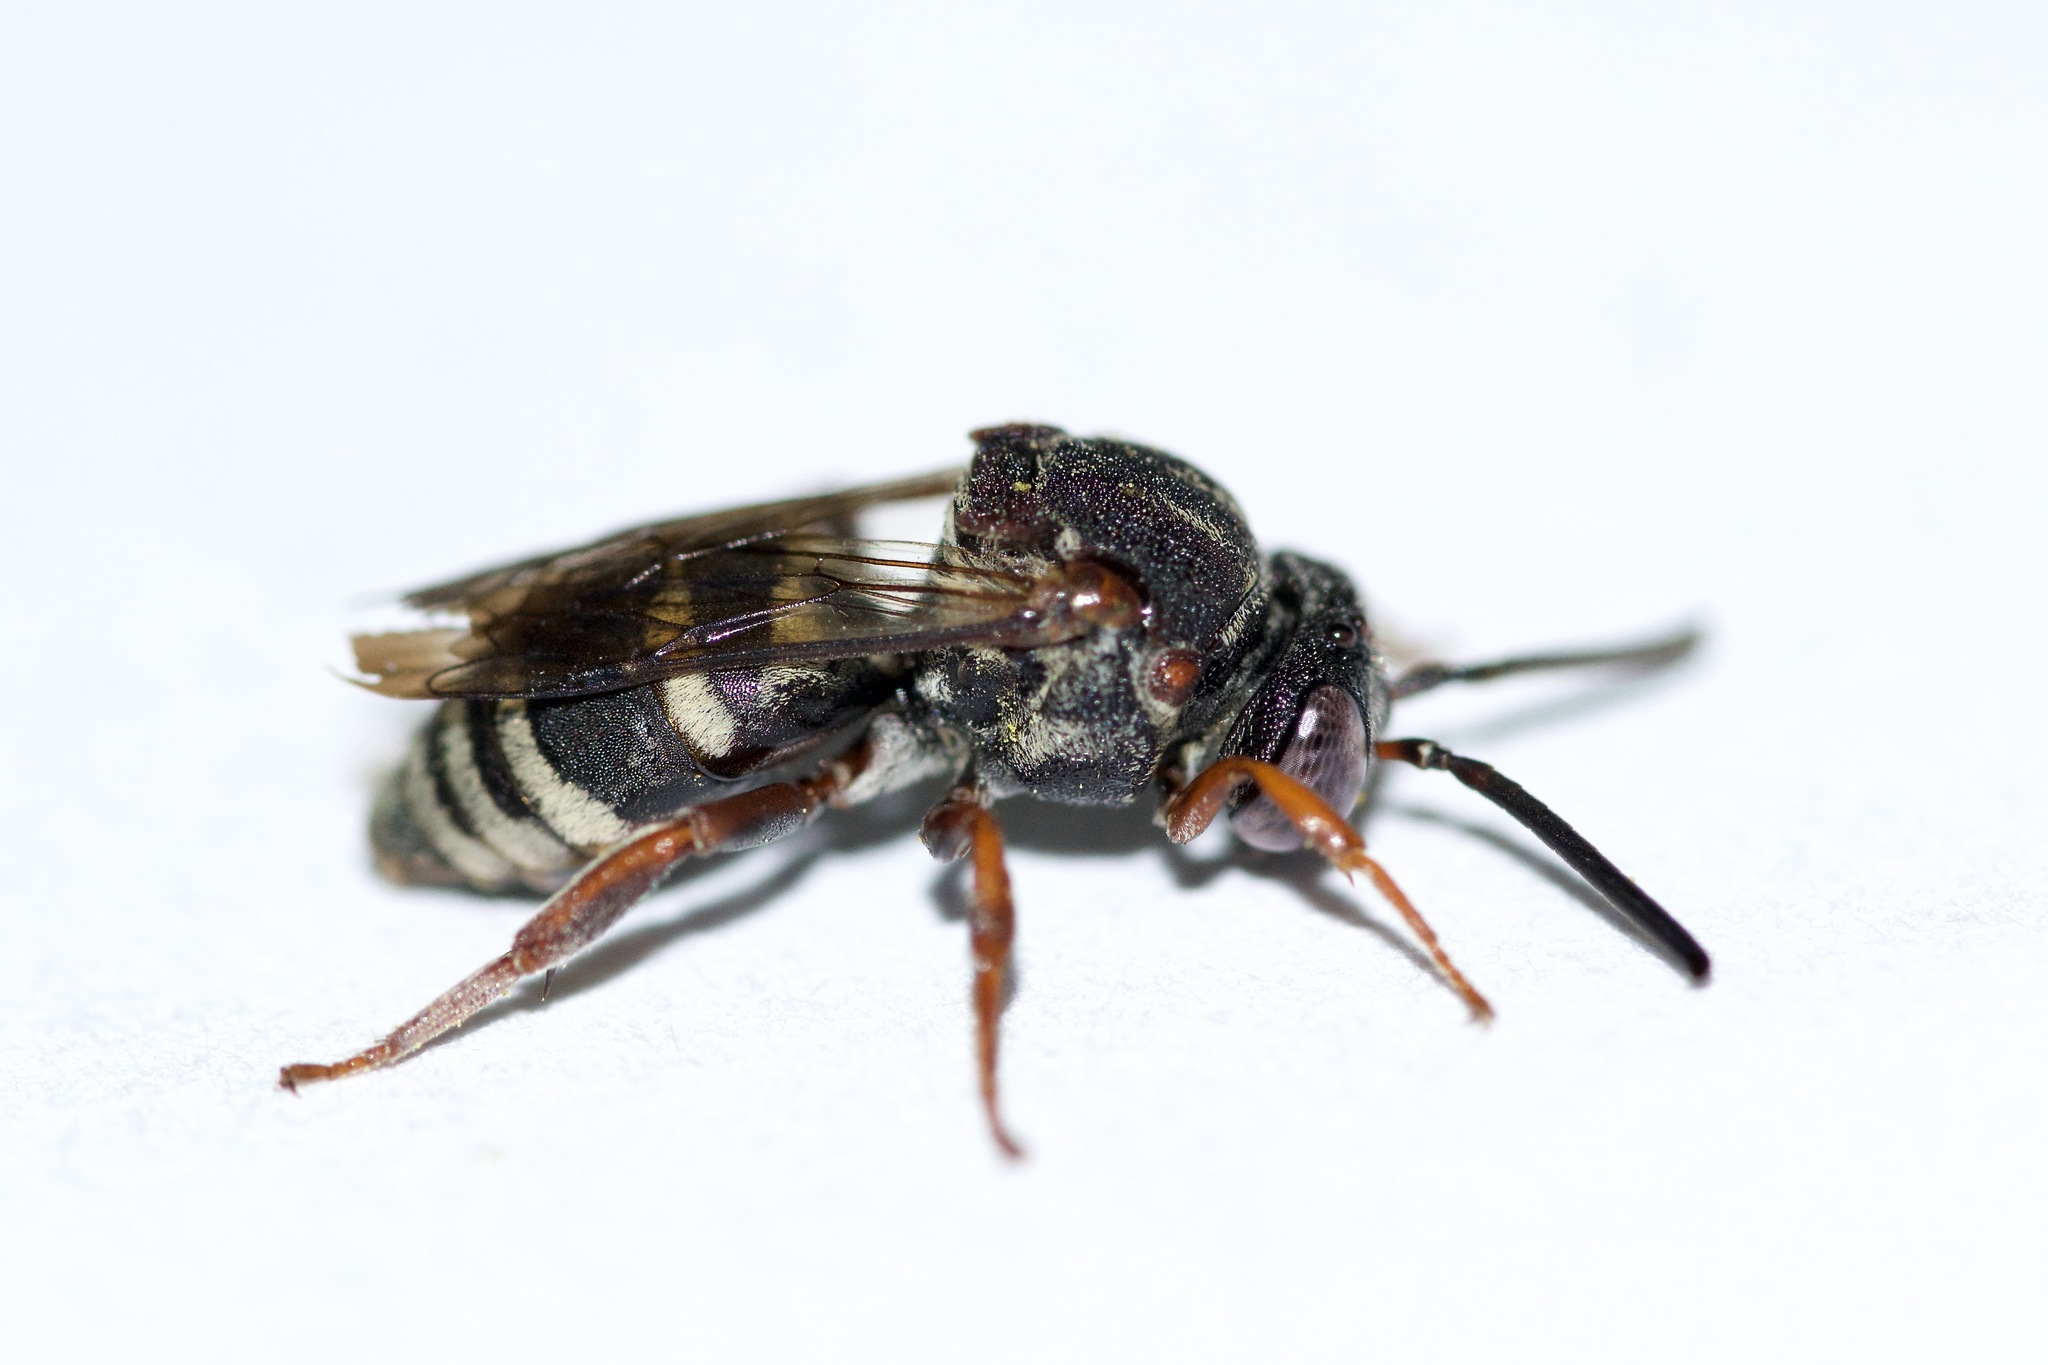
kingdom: Animalia
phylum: Arthropoda
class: Insecta
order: Hymenoptera
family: Apidae
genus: Epeolus
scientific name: Epeolus scutellaris
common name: Notch-backed cellophane-cuckoo bee
